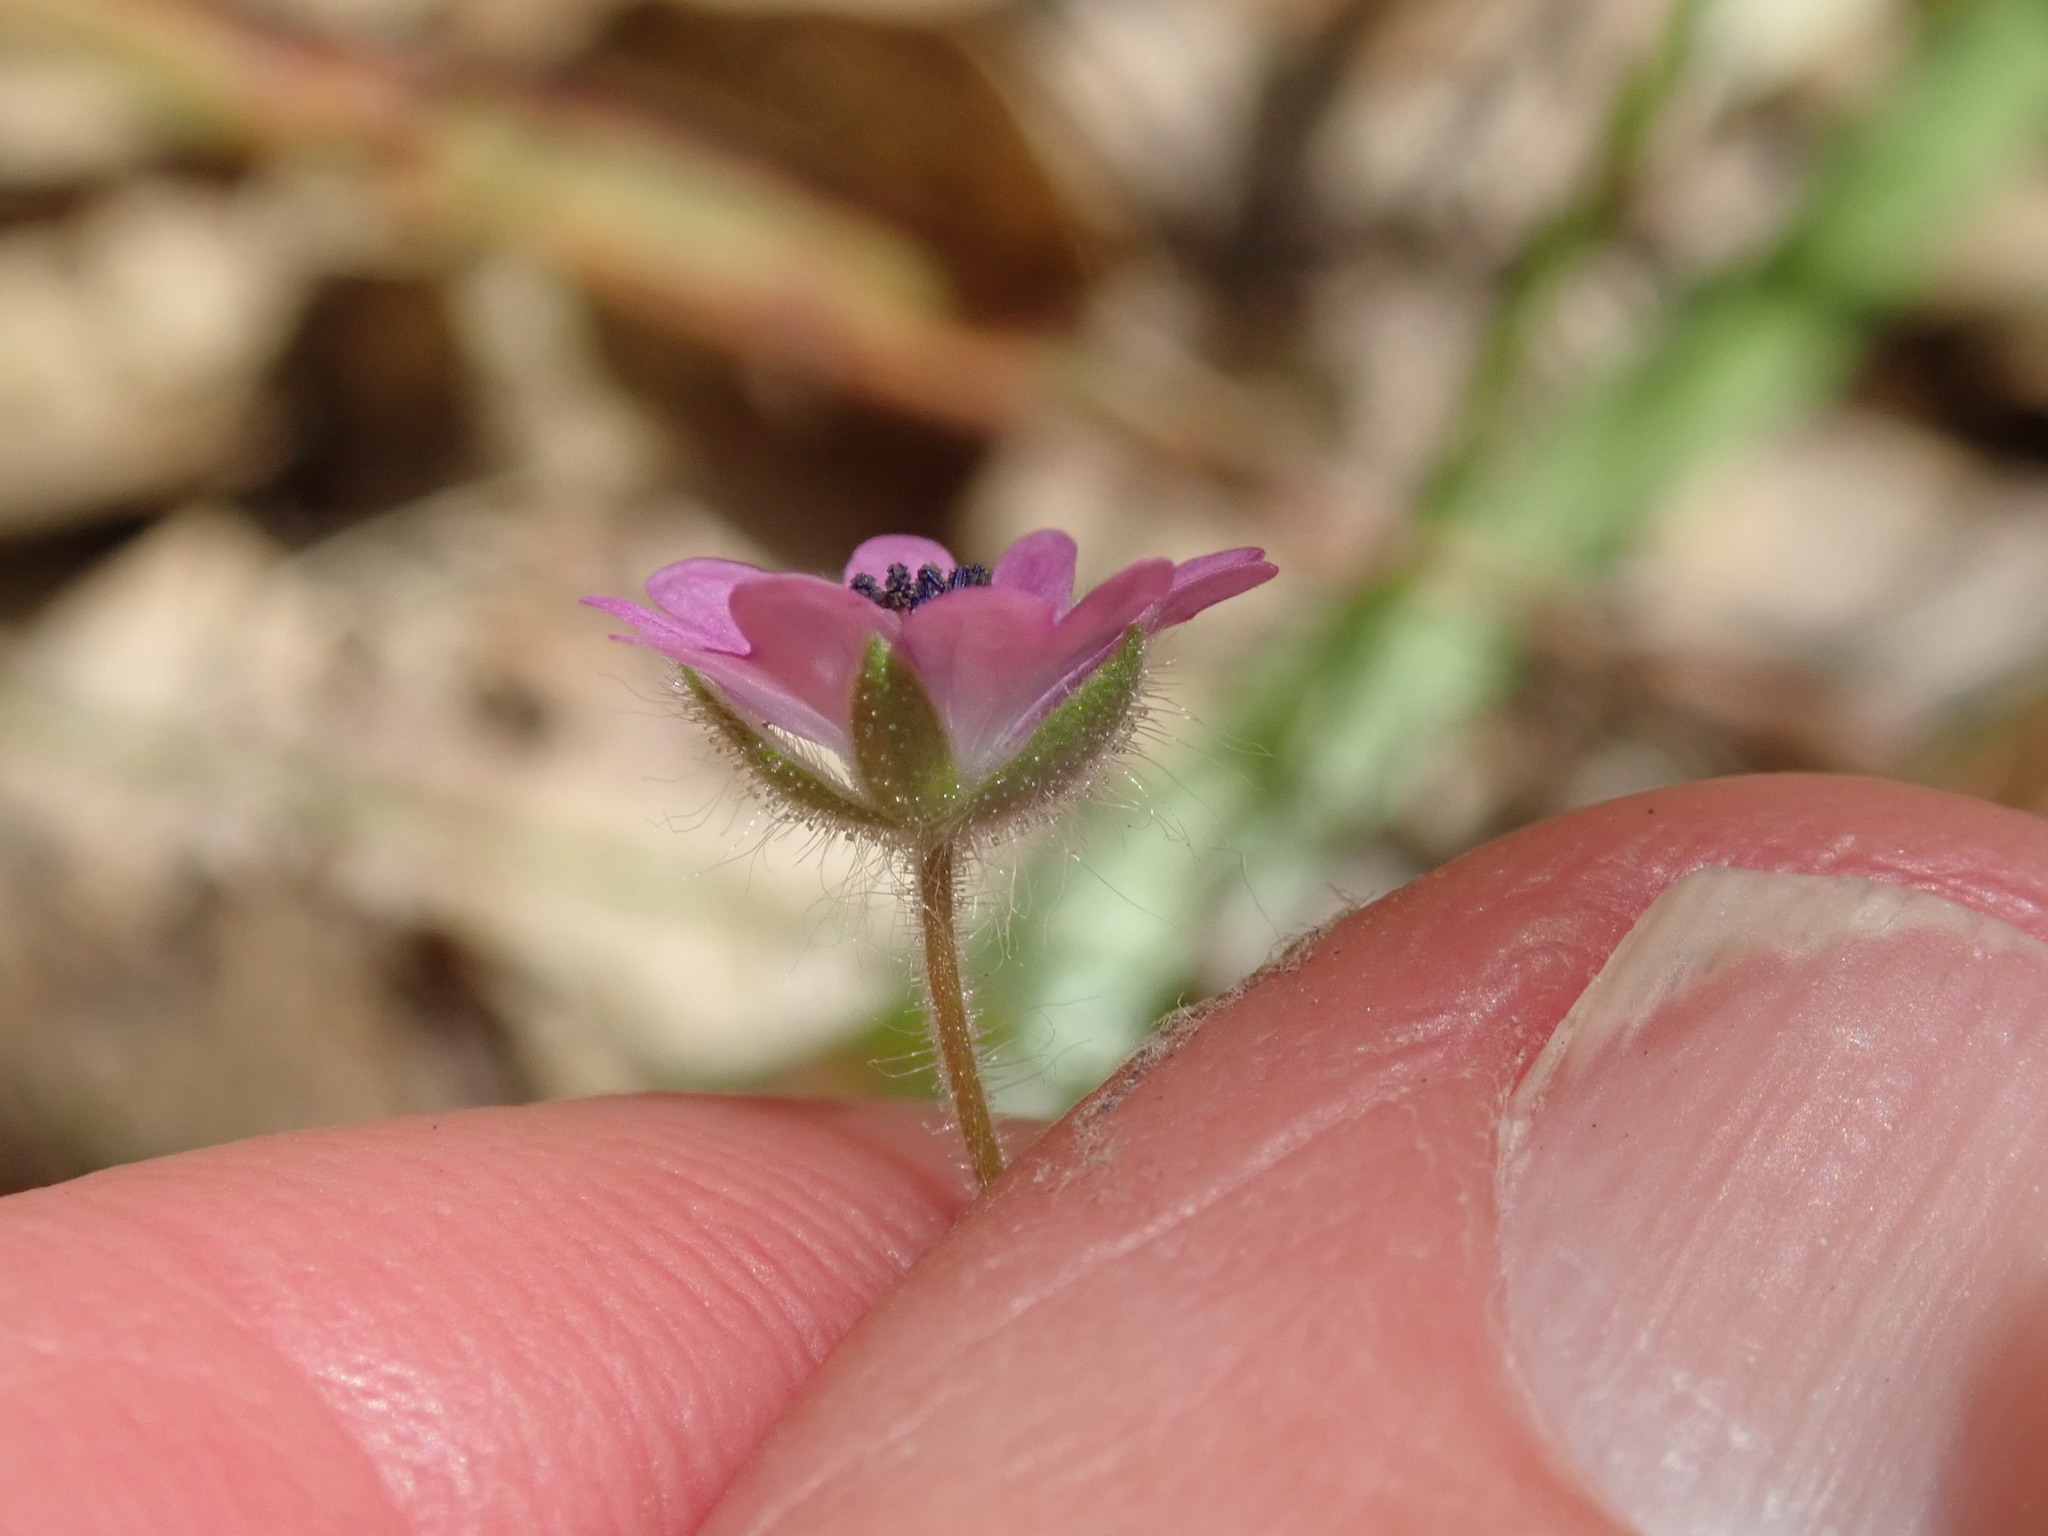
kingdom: Plantae
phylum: Tracheophyta
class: Magnoliopsida
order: Geraniales
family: Geraniaceae
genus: Geranium
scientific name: Geranium molle
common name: Dove's-foot crane's-bill
